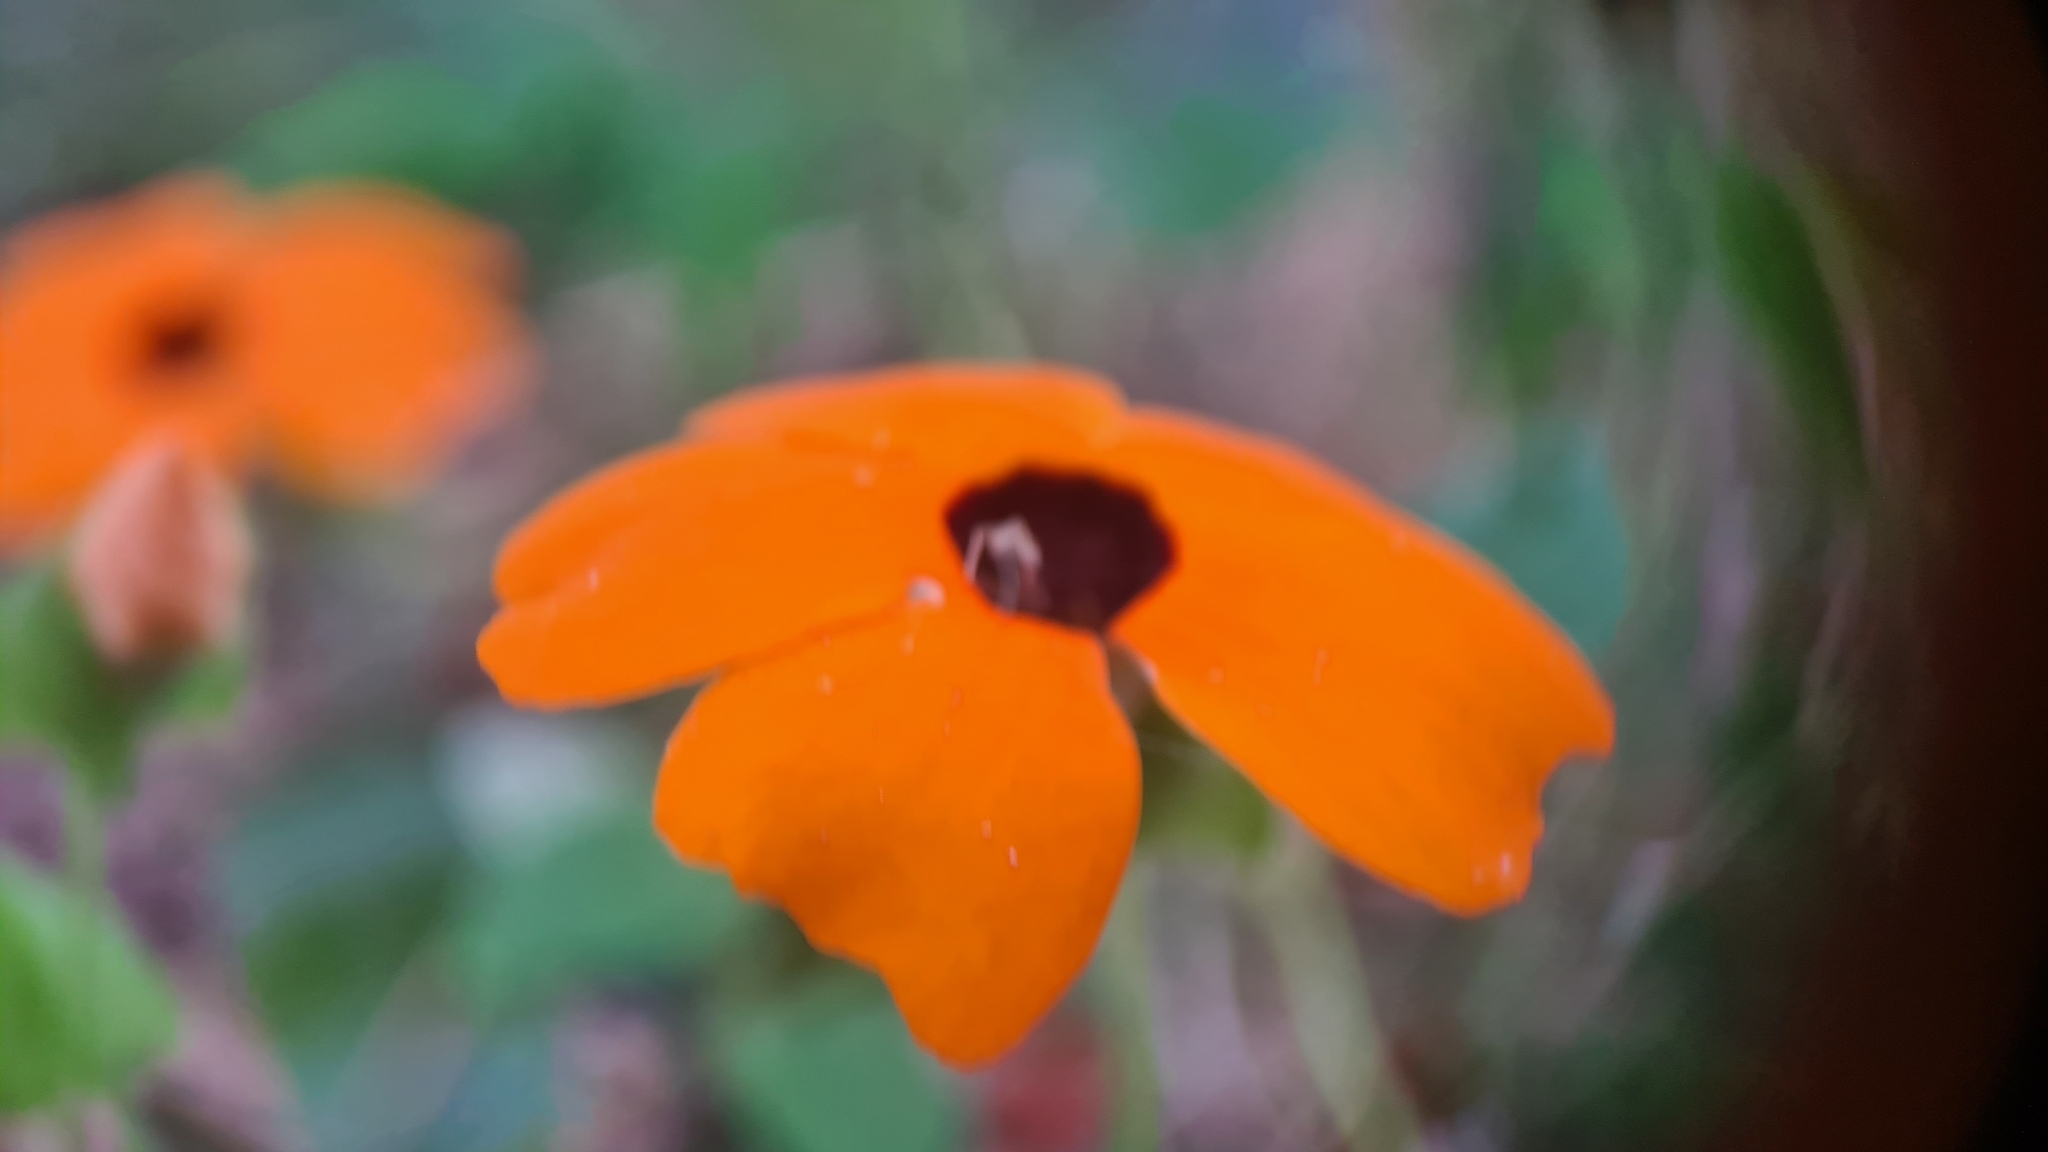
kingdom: Plantae
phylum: Tracheophyta
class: Magnoliopsida
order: Lamiales
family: Acanthaceae
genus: Thunbergia
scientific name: Thunbergia alata
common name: Blackeyed susan vine
